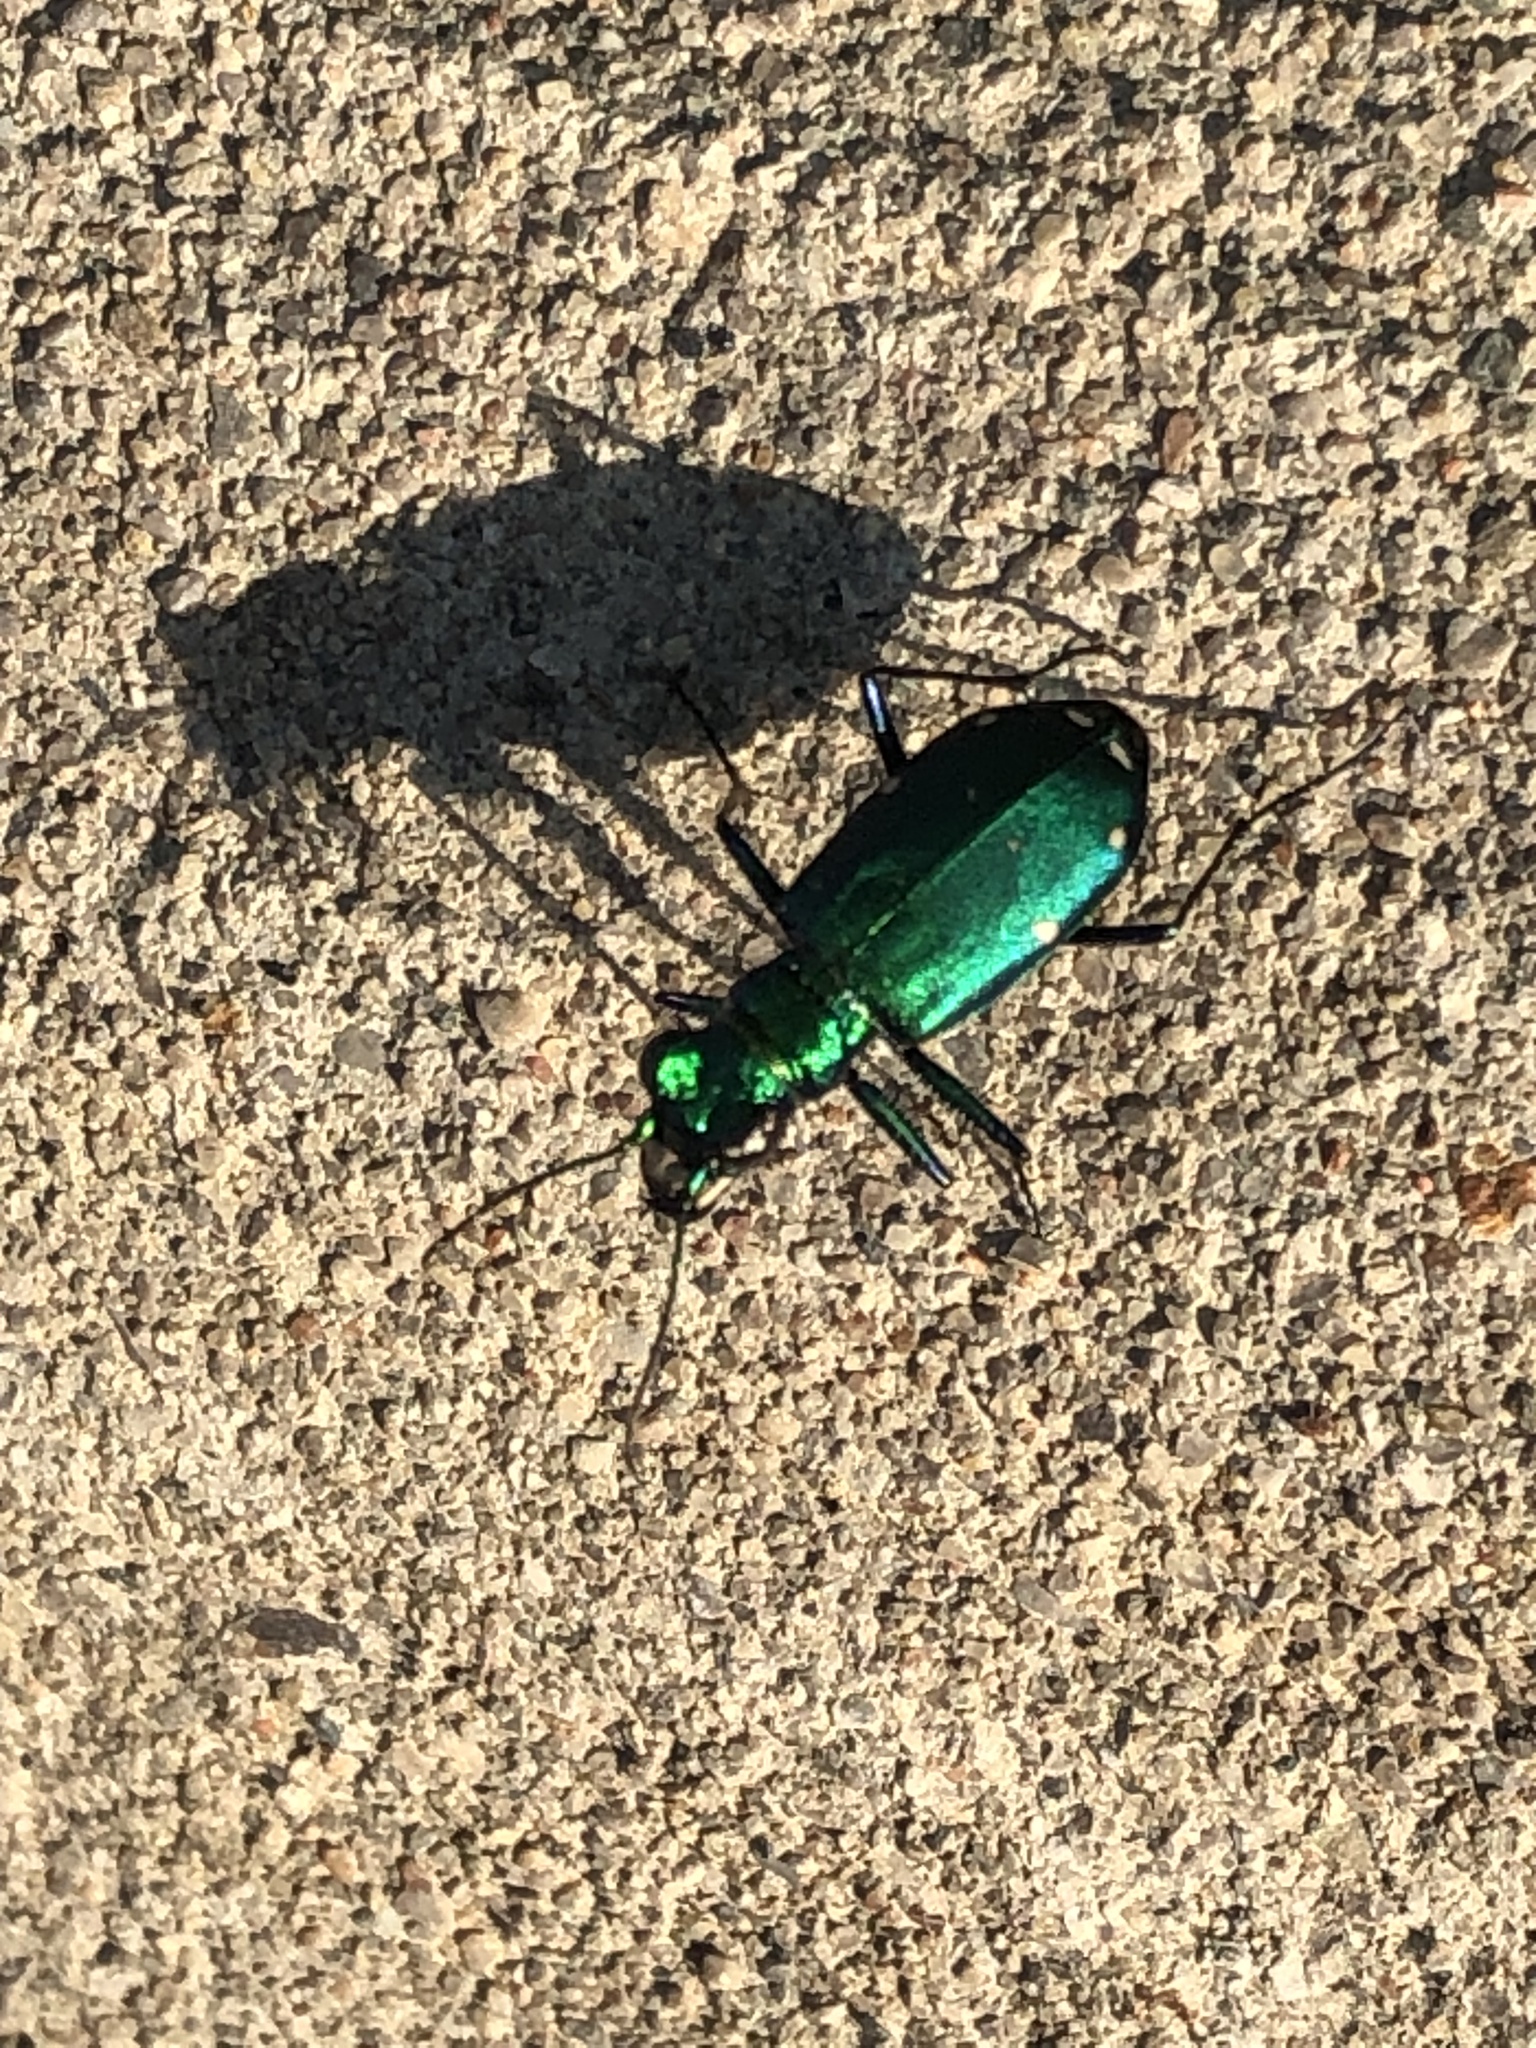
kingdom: Animalia
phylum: Arthropoda
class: Insecta
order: Coleoptera
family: Carabidae
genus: Cicindela
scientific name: Cicindela sexguttata
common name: Six-spotted tiger beetle
